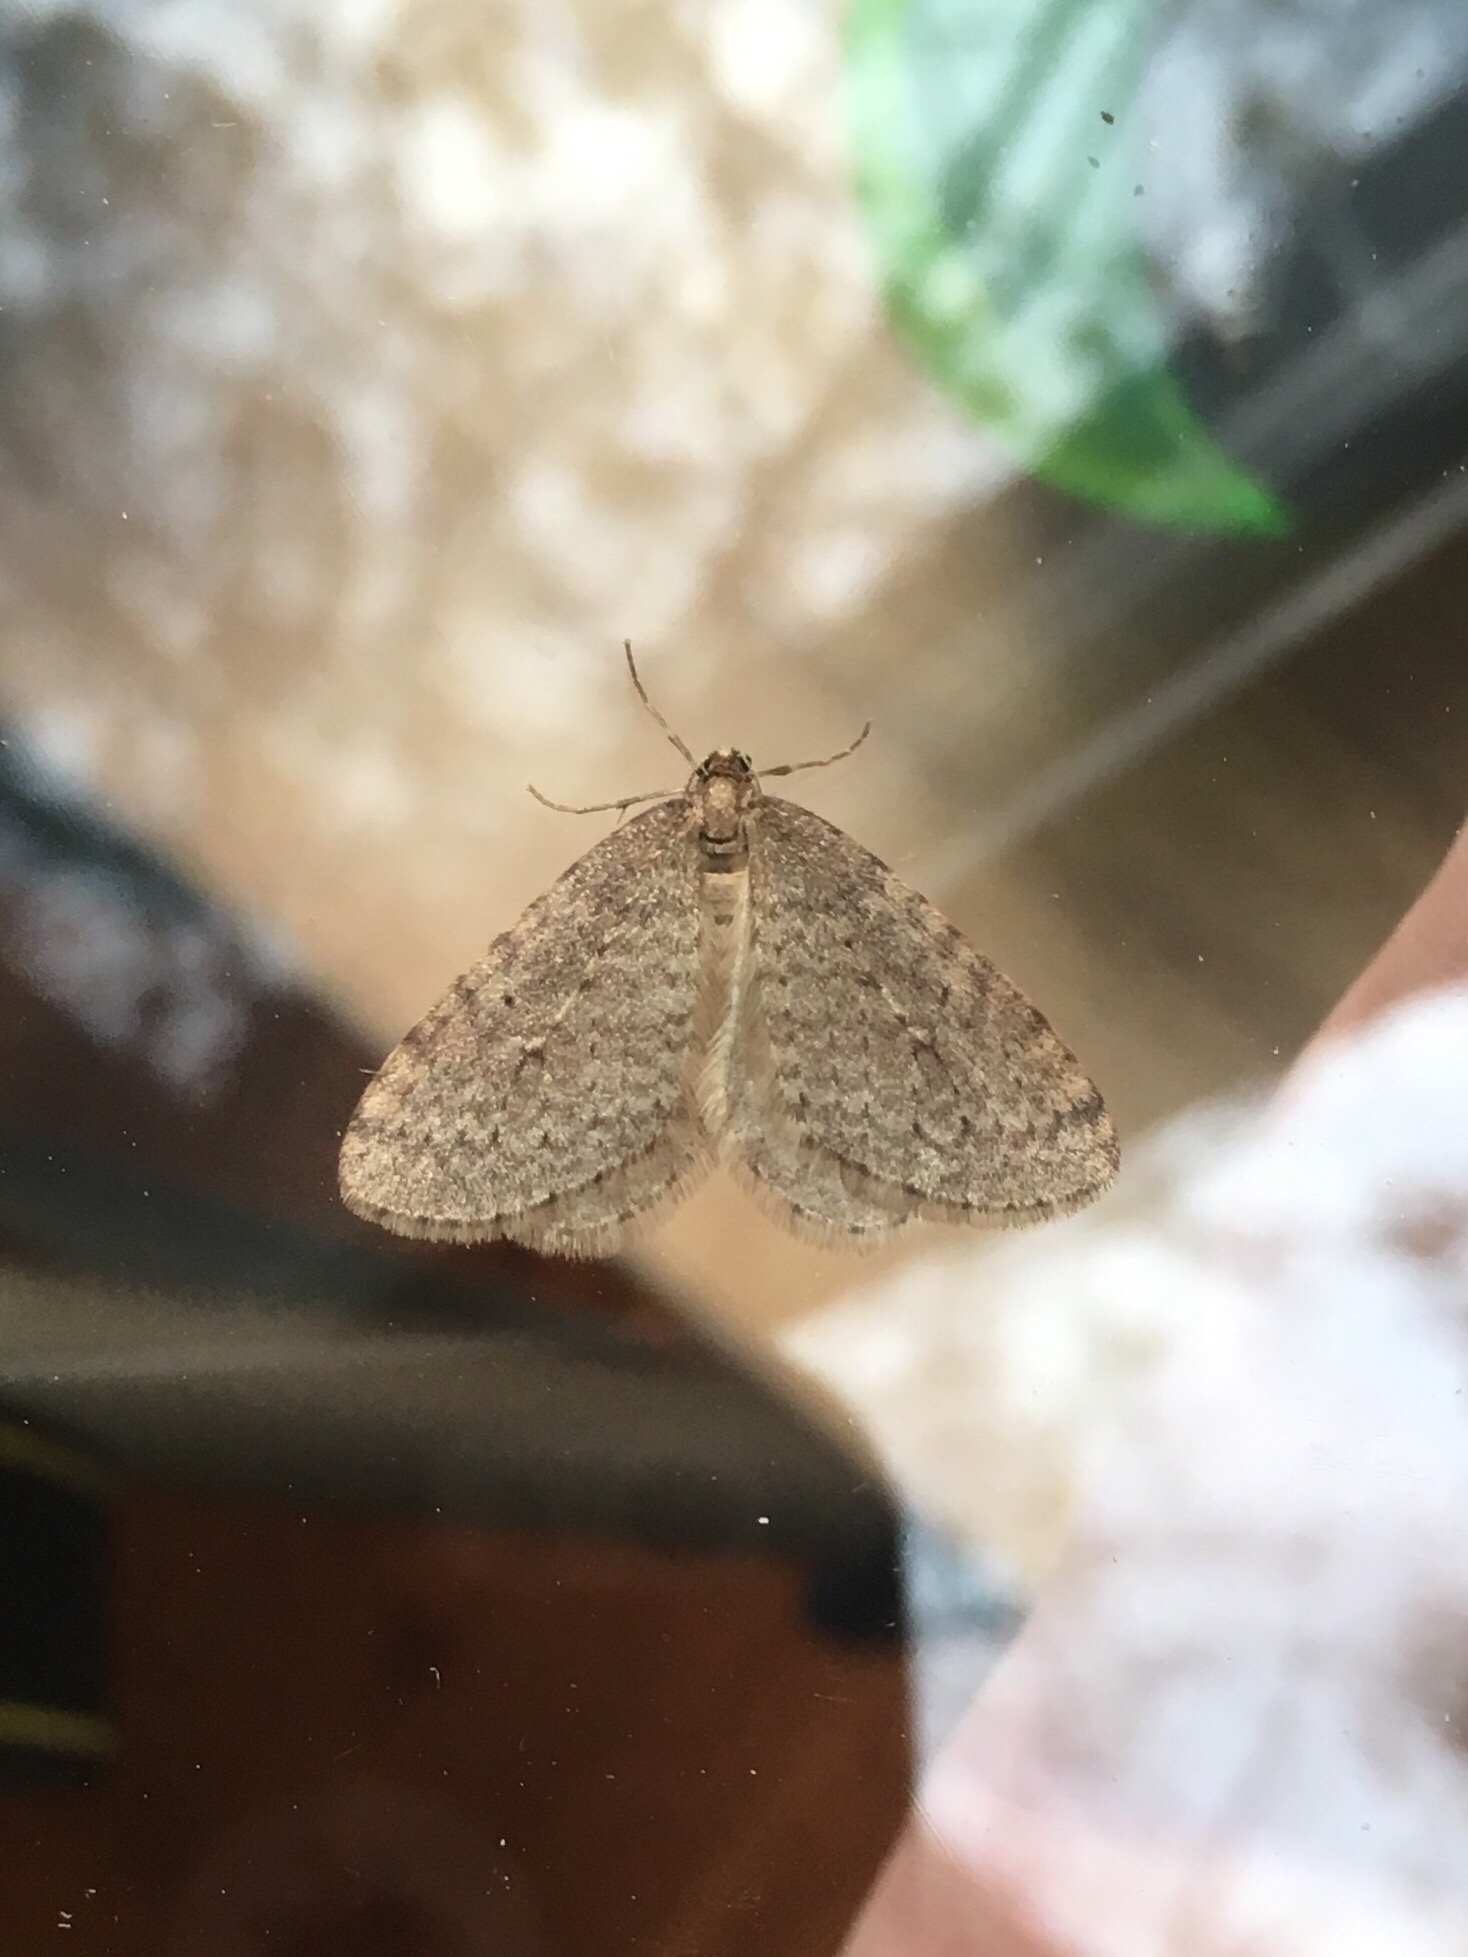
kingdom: Animalia
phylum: Arthropoda
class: Insecta
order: Lepidoptera
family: Geometridae
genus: Operophtera
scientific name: Operophtera bruceata
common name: Bruce spanworm
